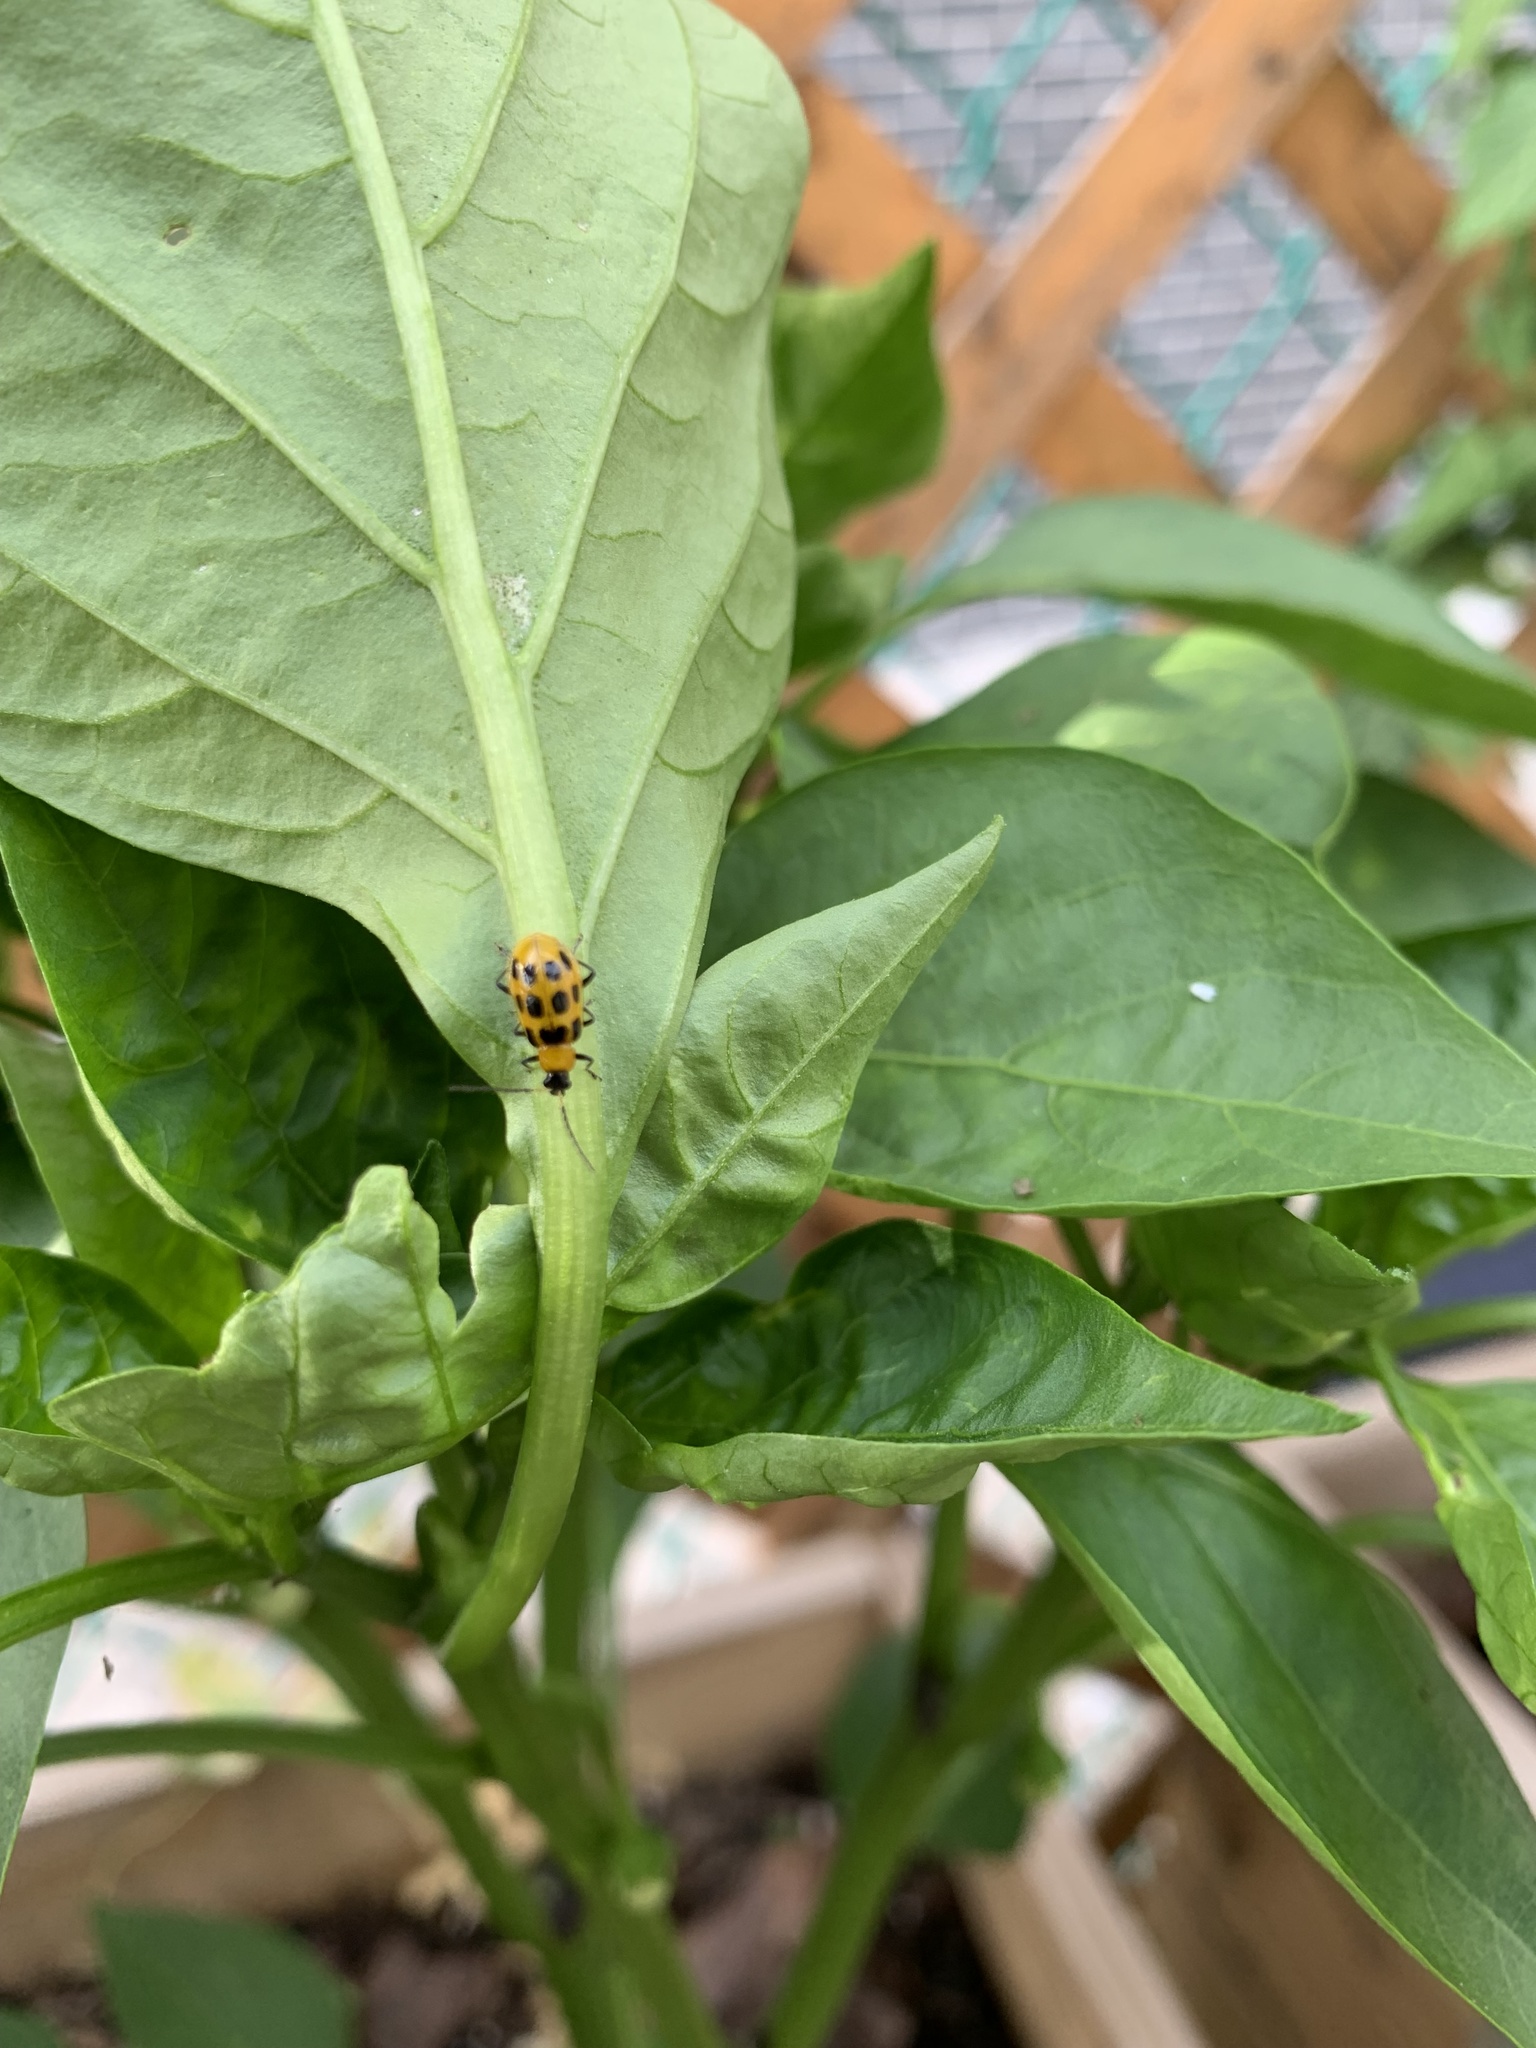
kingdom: Animalia
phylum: Arthropoda
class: Insecta
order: Coleoptera
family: Chrysomelidae
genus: Diabrotica
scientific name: Diabrotica undecimpunctata
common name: Spotted cucumber beetle
